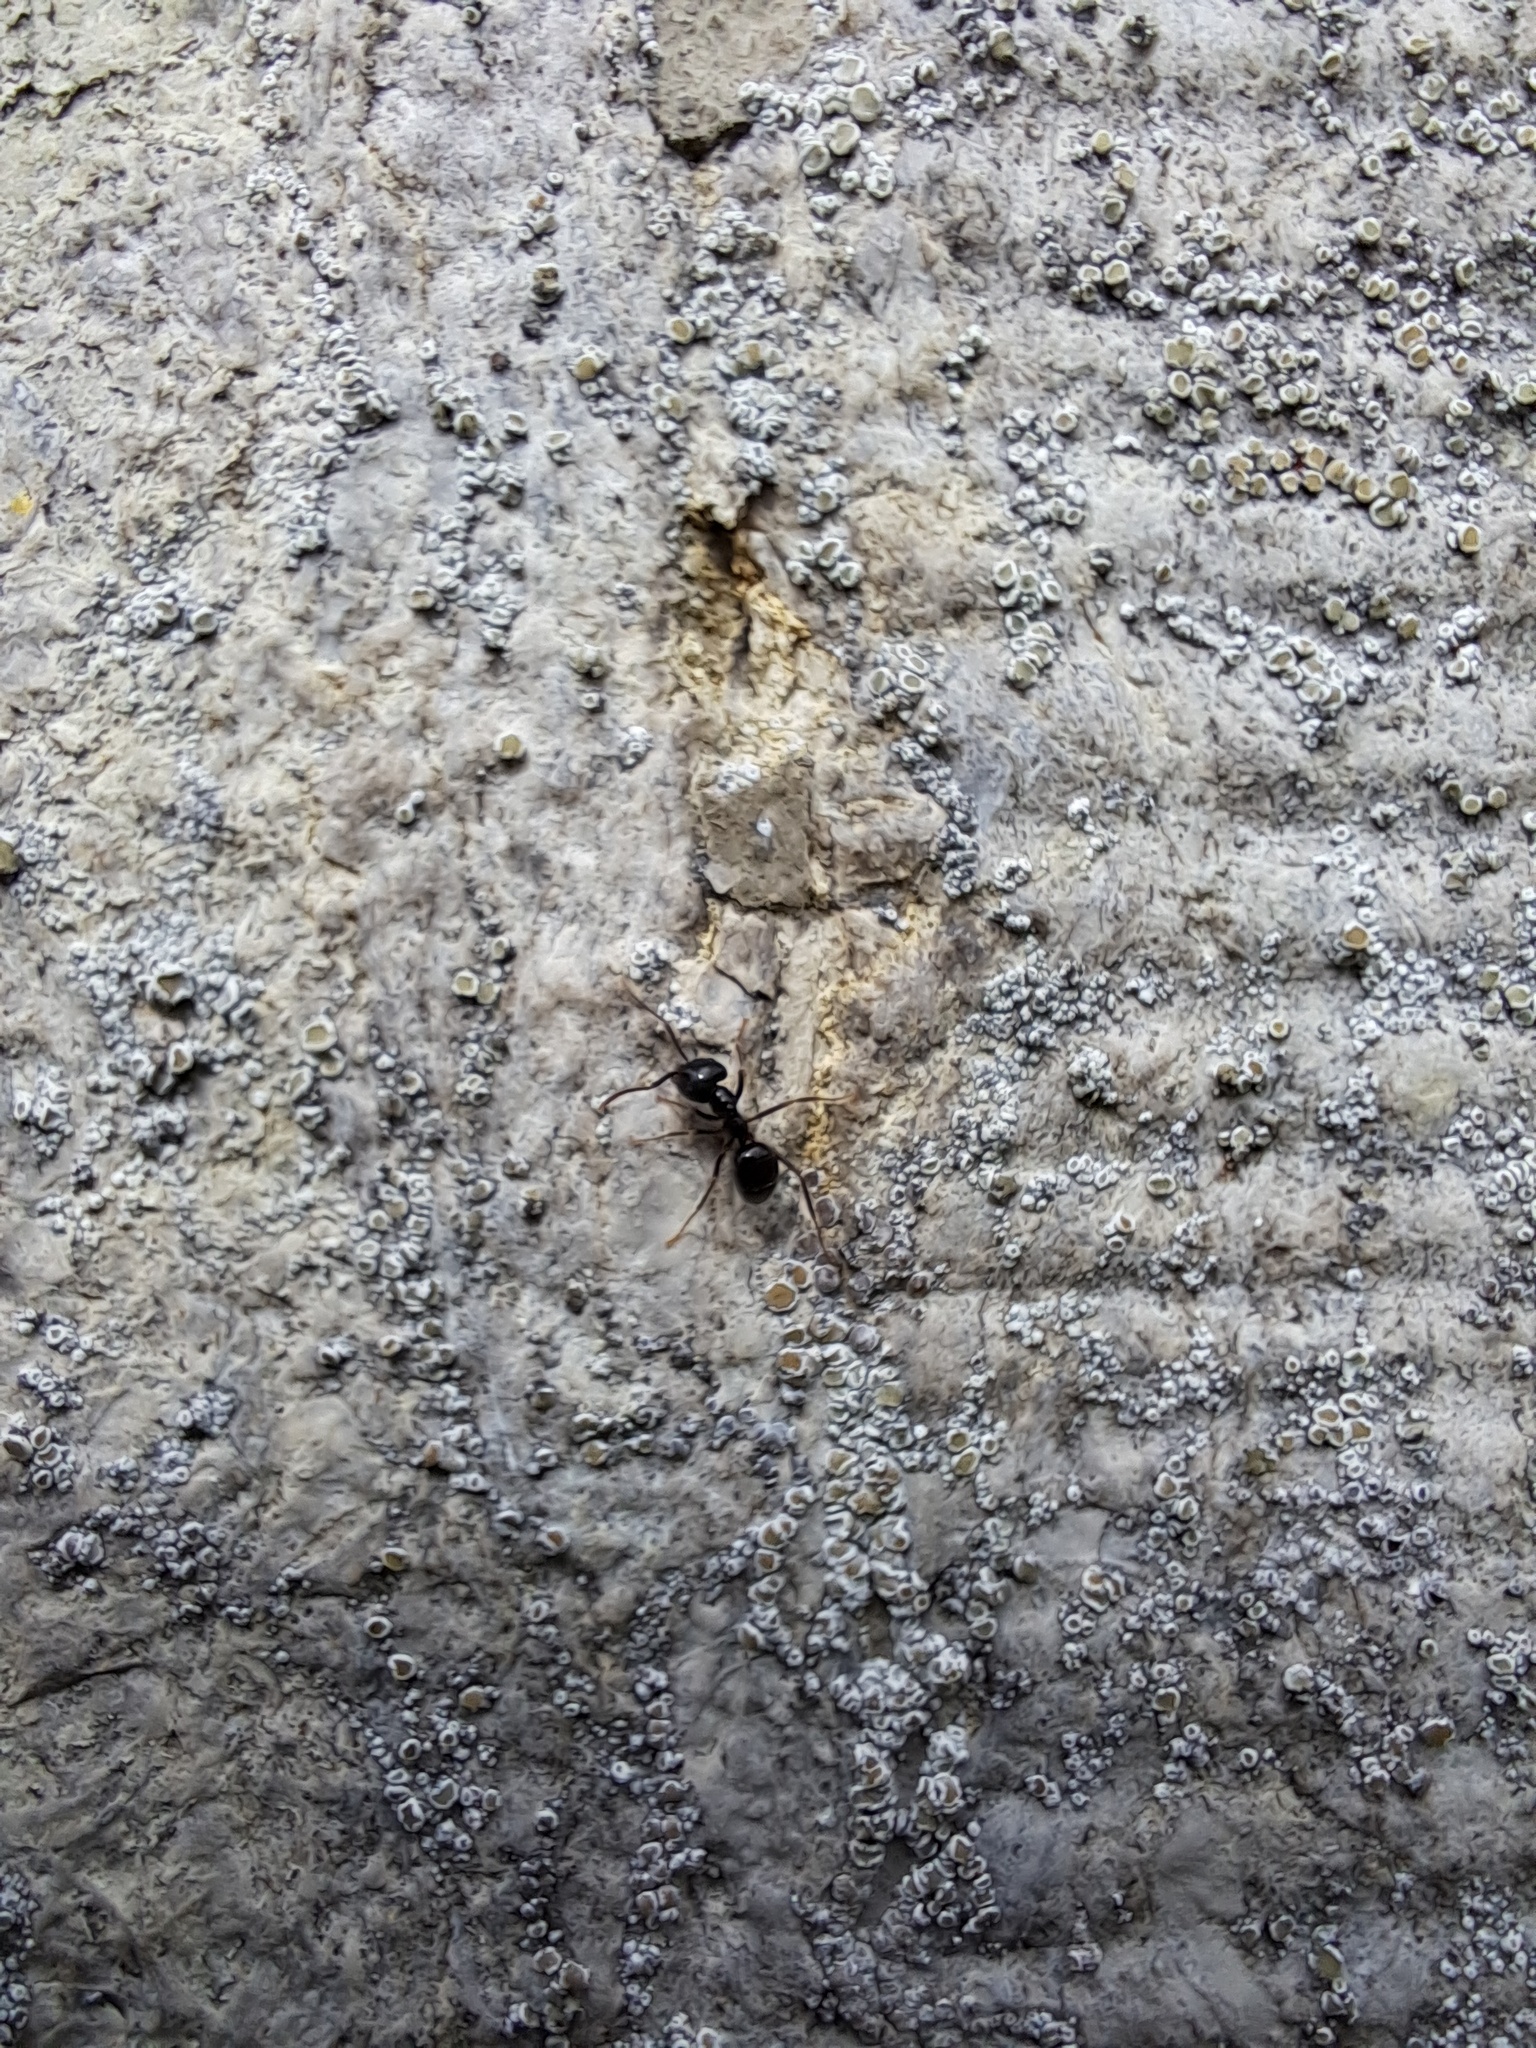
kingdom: Animalia
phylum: Arthropoda
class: Insecta
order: Hymenoptera
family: Formicidae
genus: Lasius
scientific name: Lasius fuliginosus
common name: Jet ant
